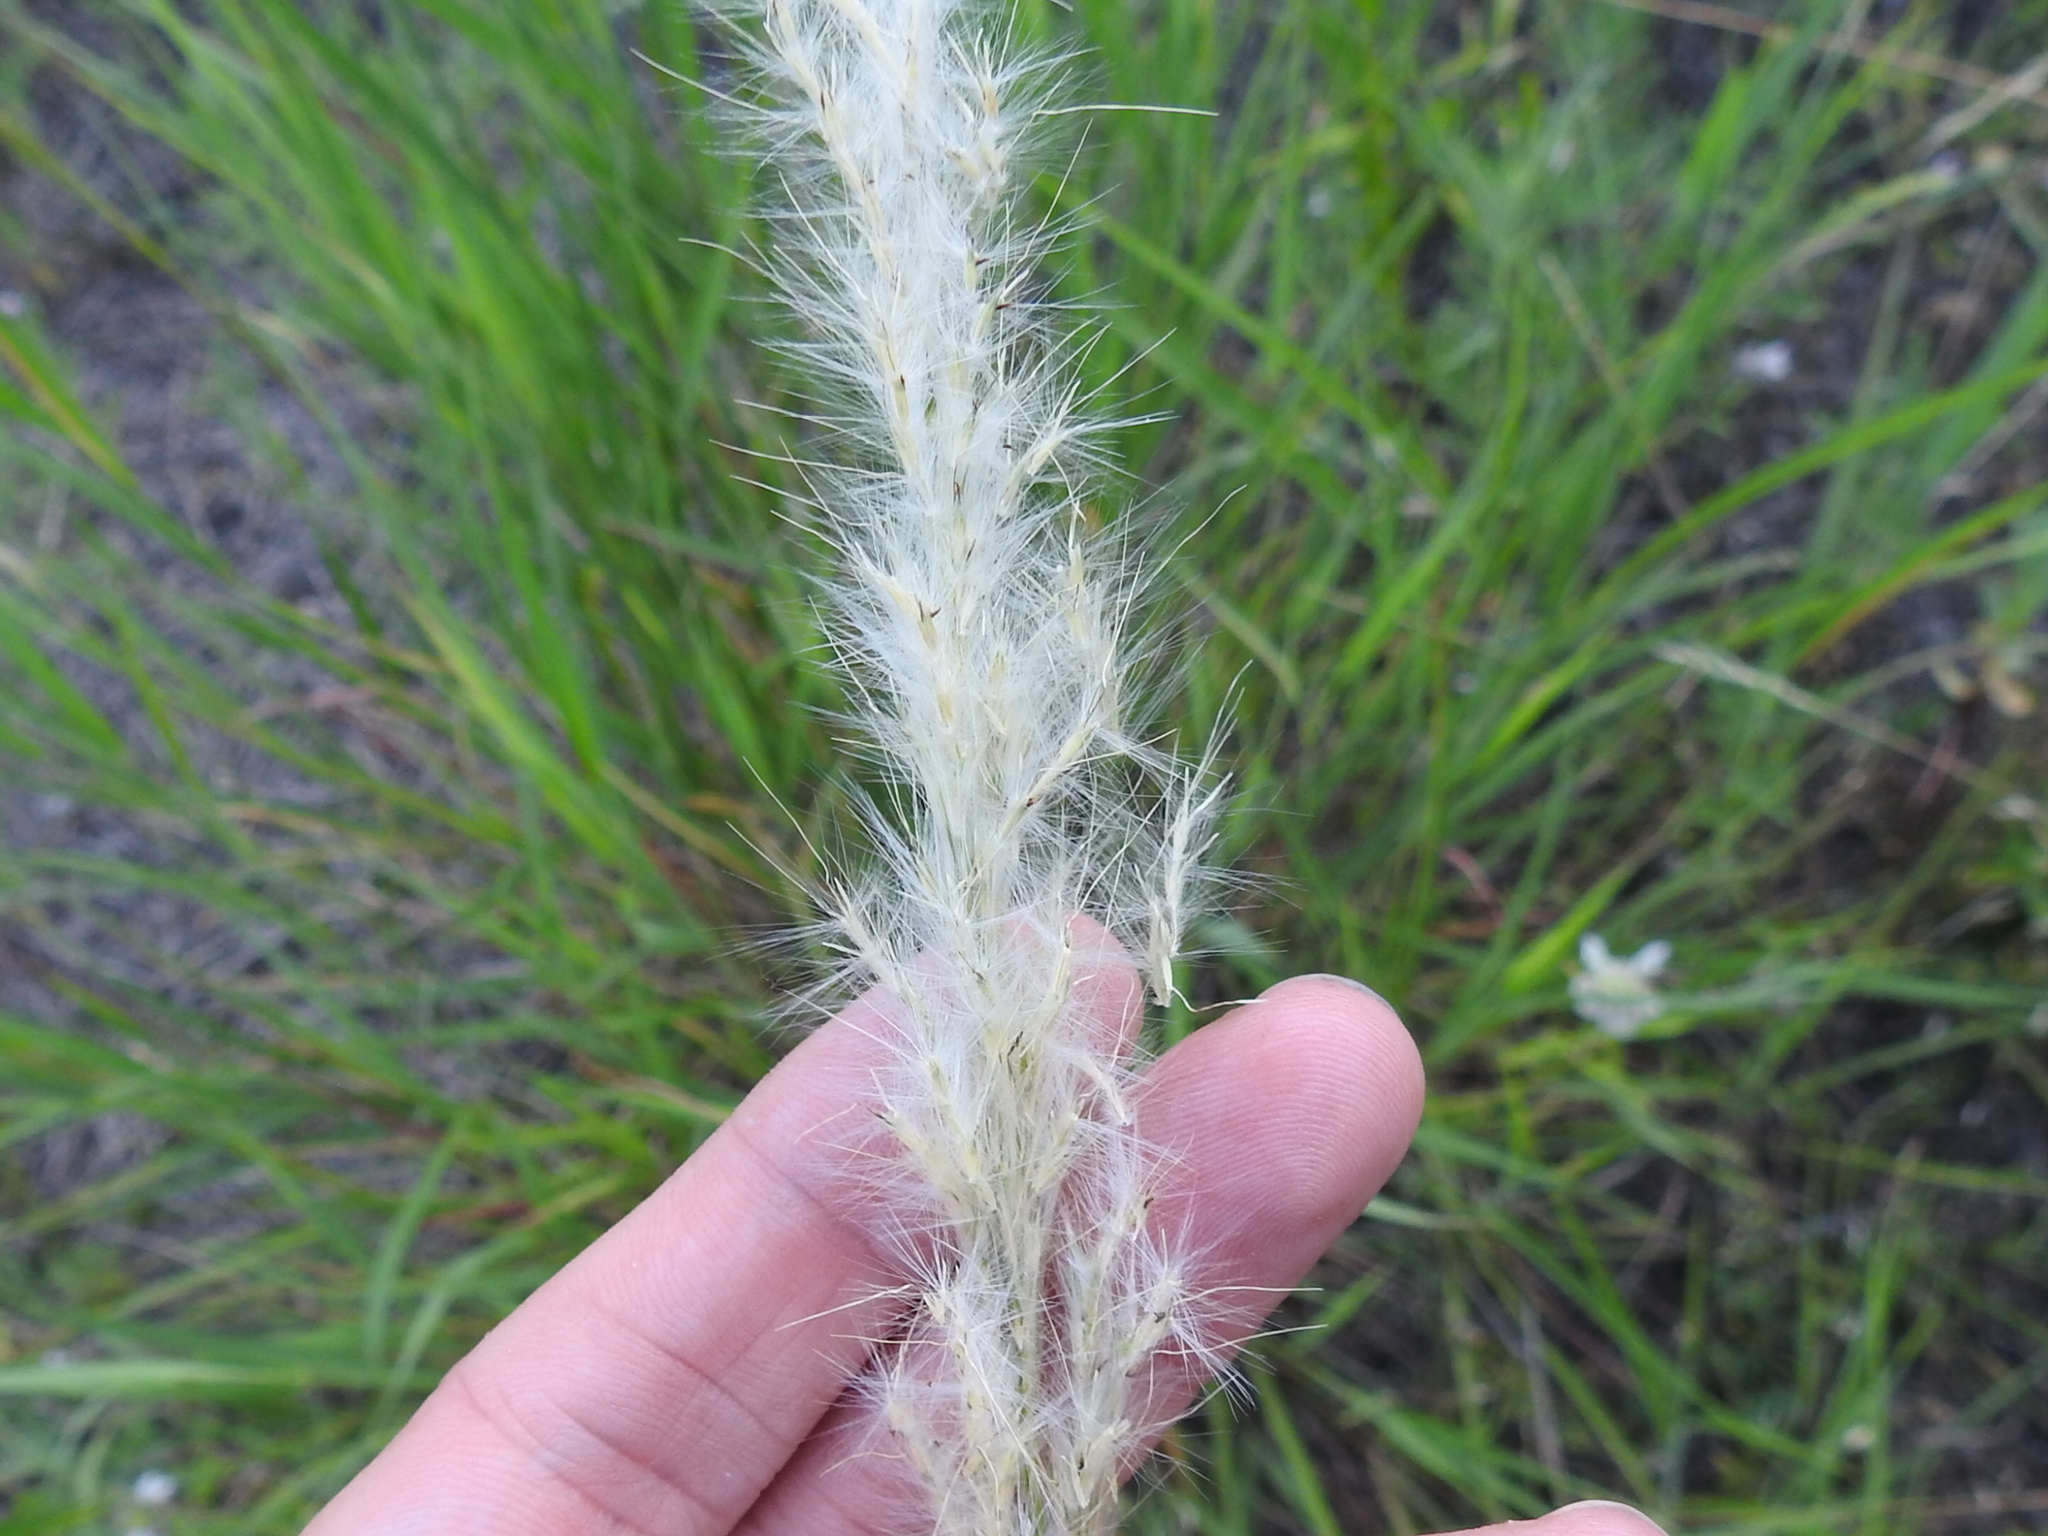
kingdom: Plantae
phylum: Tracheophyta
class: Liliopsida
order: Poales
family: Poaceae
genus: Bothriochloa
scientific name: Bothriochloa torreyana
